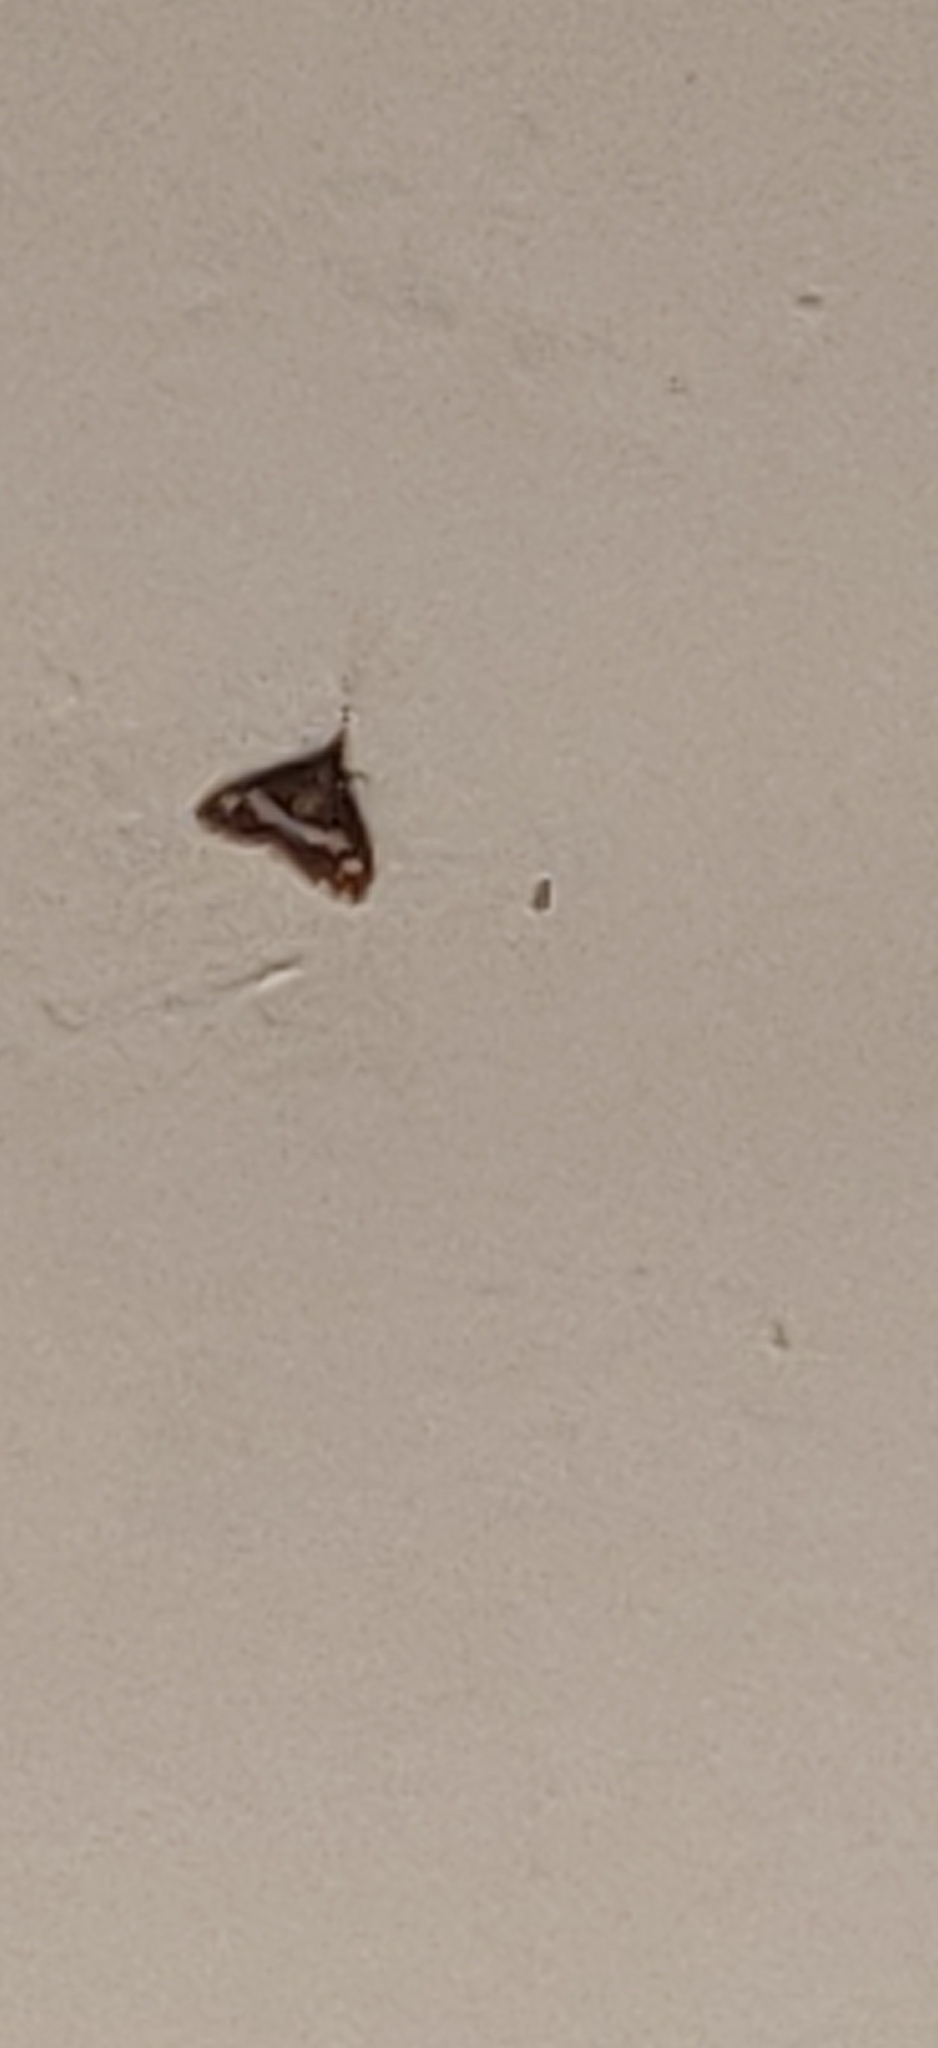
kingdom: Animalia
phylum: Arthropoda
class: Insecta
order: Lepidoptera
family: Crambidae
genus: Spoladea
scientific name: Spoladea recurvalis
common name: Beet webworm moth
